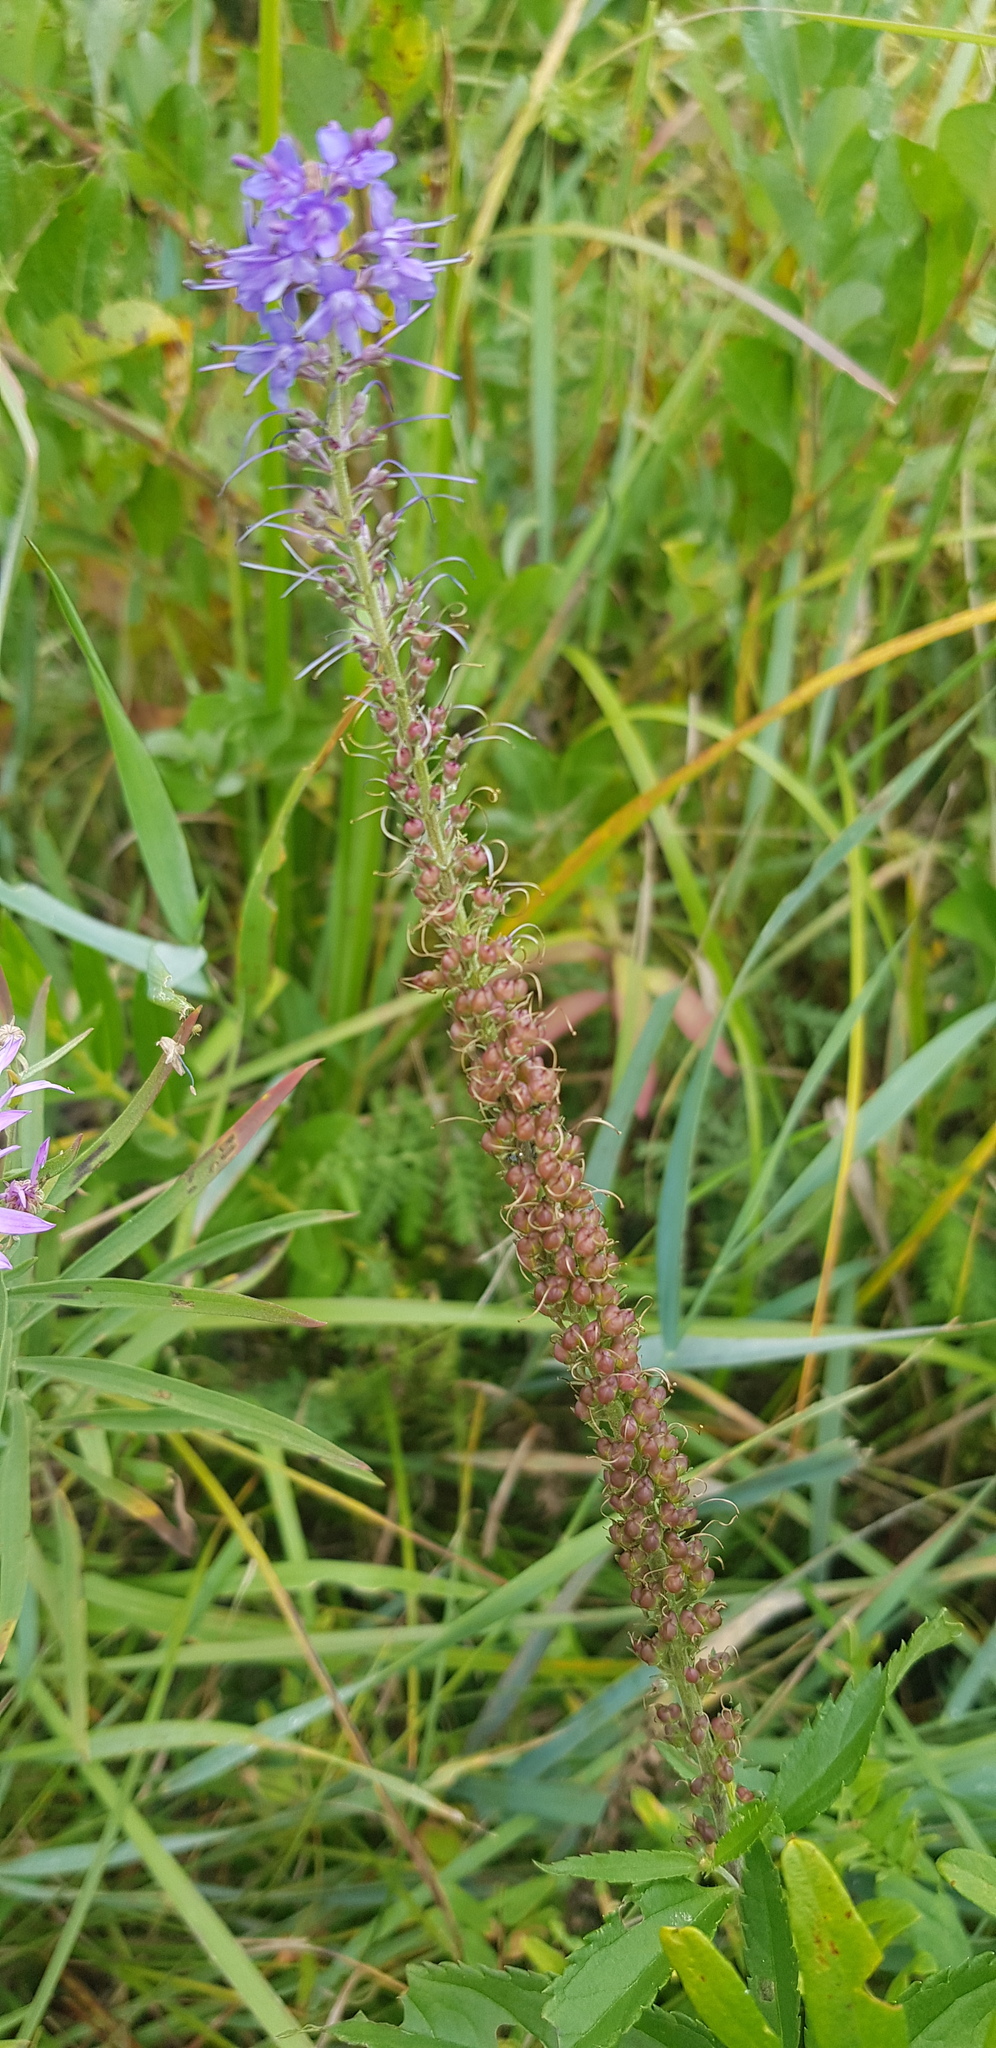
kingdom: Plantae
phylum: Tracheophyta
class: Magnoliopsida
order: Lamiales
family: Plantaginaceae
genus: Veronica
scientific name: Veronica longifolia
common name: Garden speedwell
